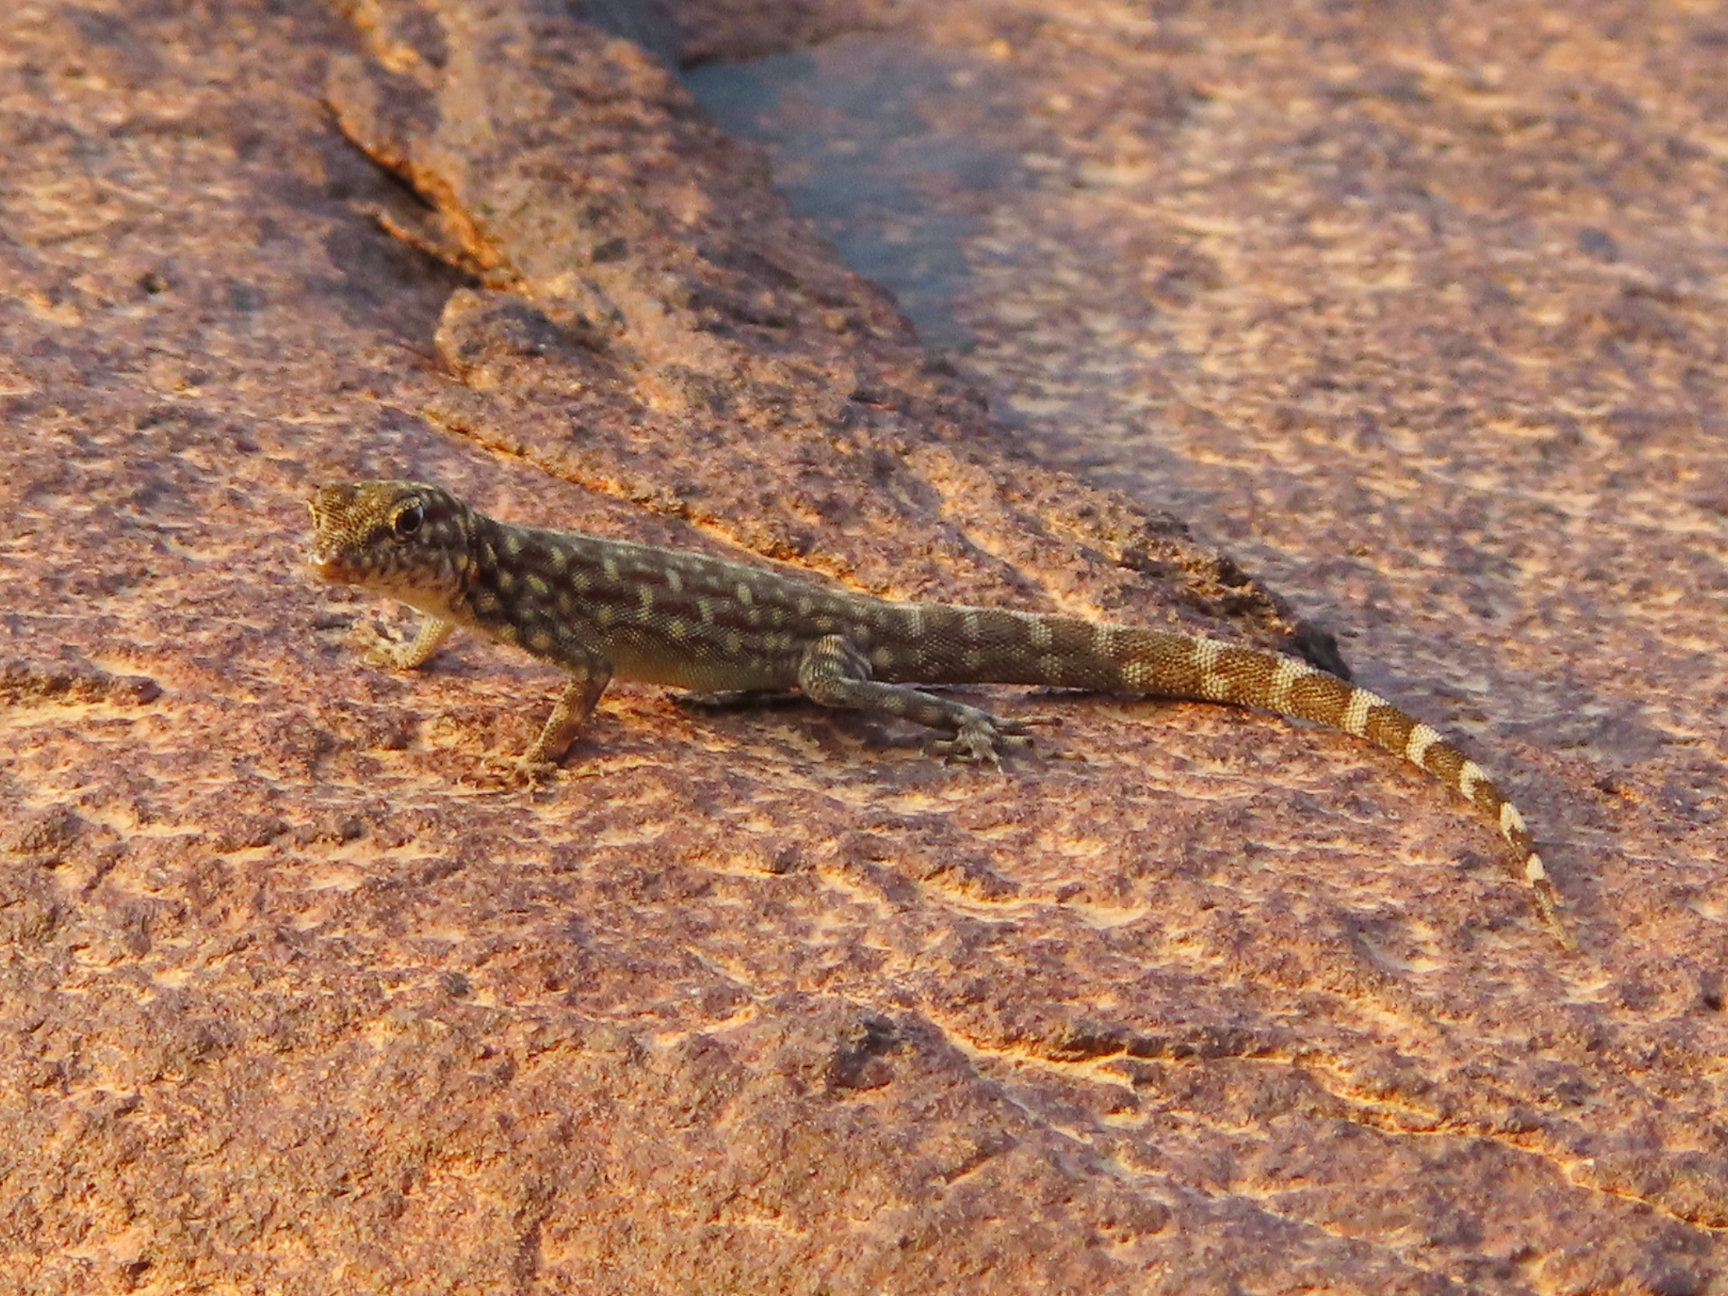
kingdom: Animalia
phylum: Chordata
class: Squamata
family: Sphaerodactylidae
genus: Pristurus
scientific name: Pristurus celerrimus
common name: Bar-tailed semaphore gecko
